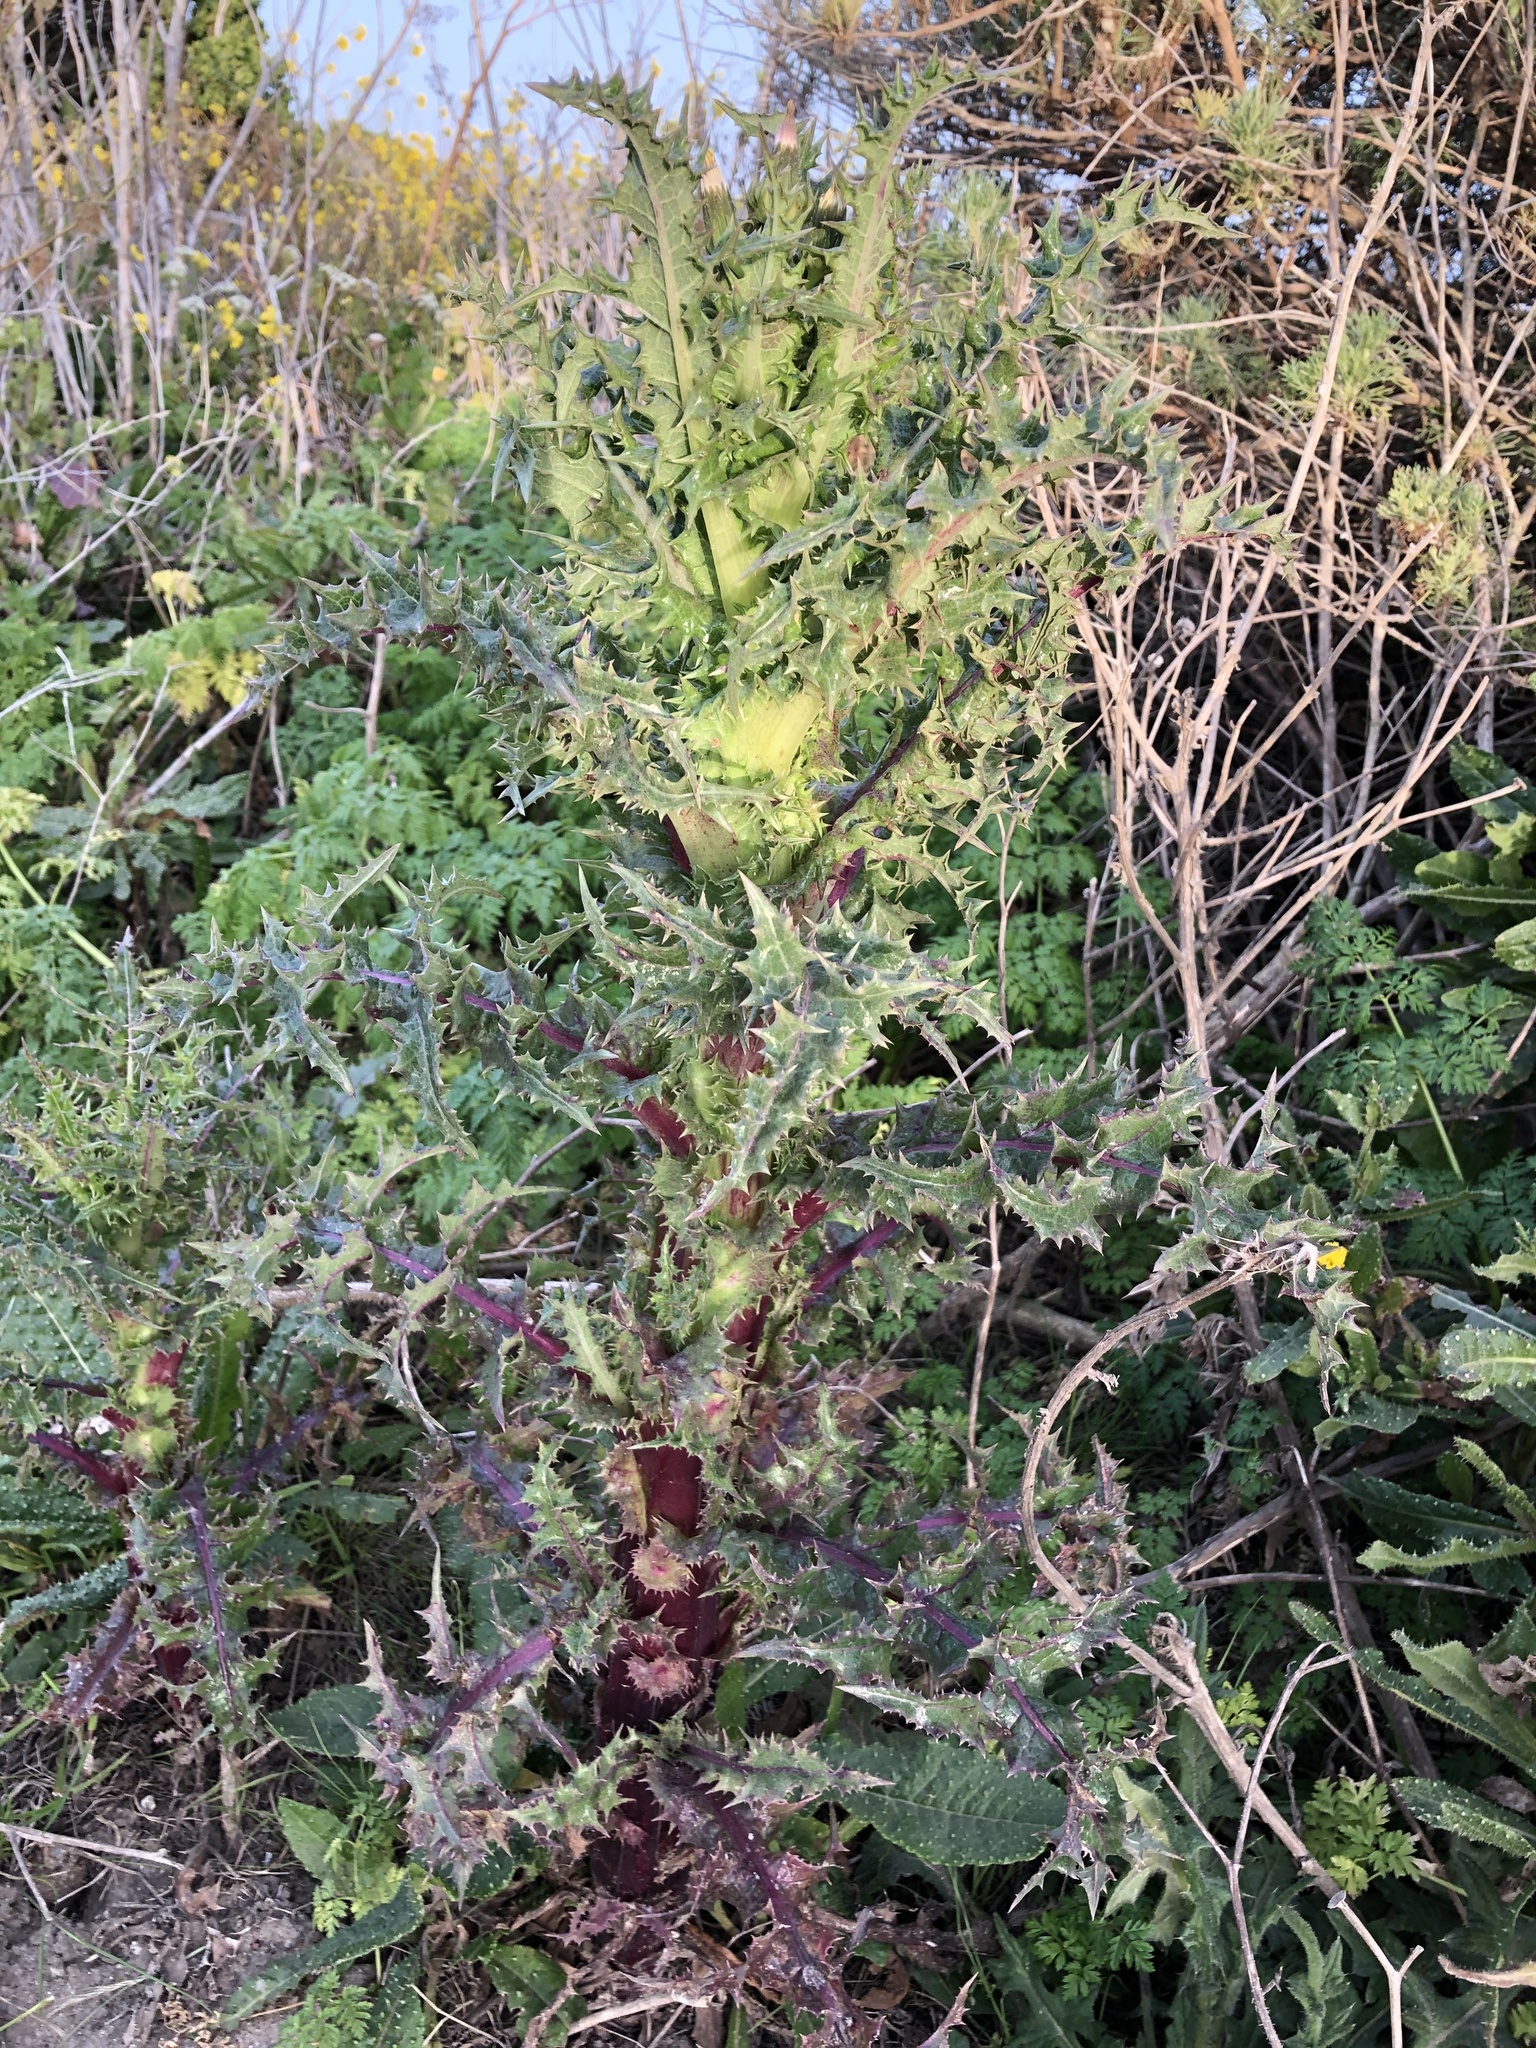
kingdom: Plantae
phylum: Tracheophyta
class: Magnoliopsida
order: Asterales
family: Asteraceae
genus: Sonchus
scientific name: Sonchus asper
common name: Prickly sow-thistle
